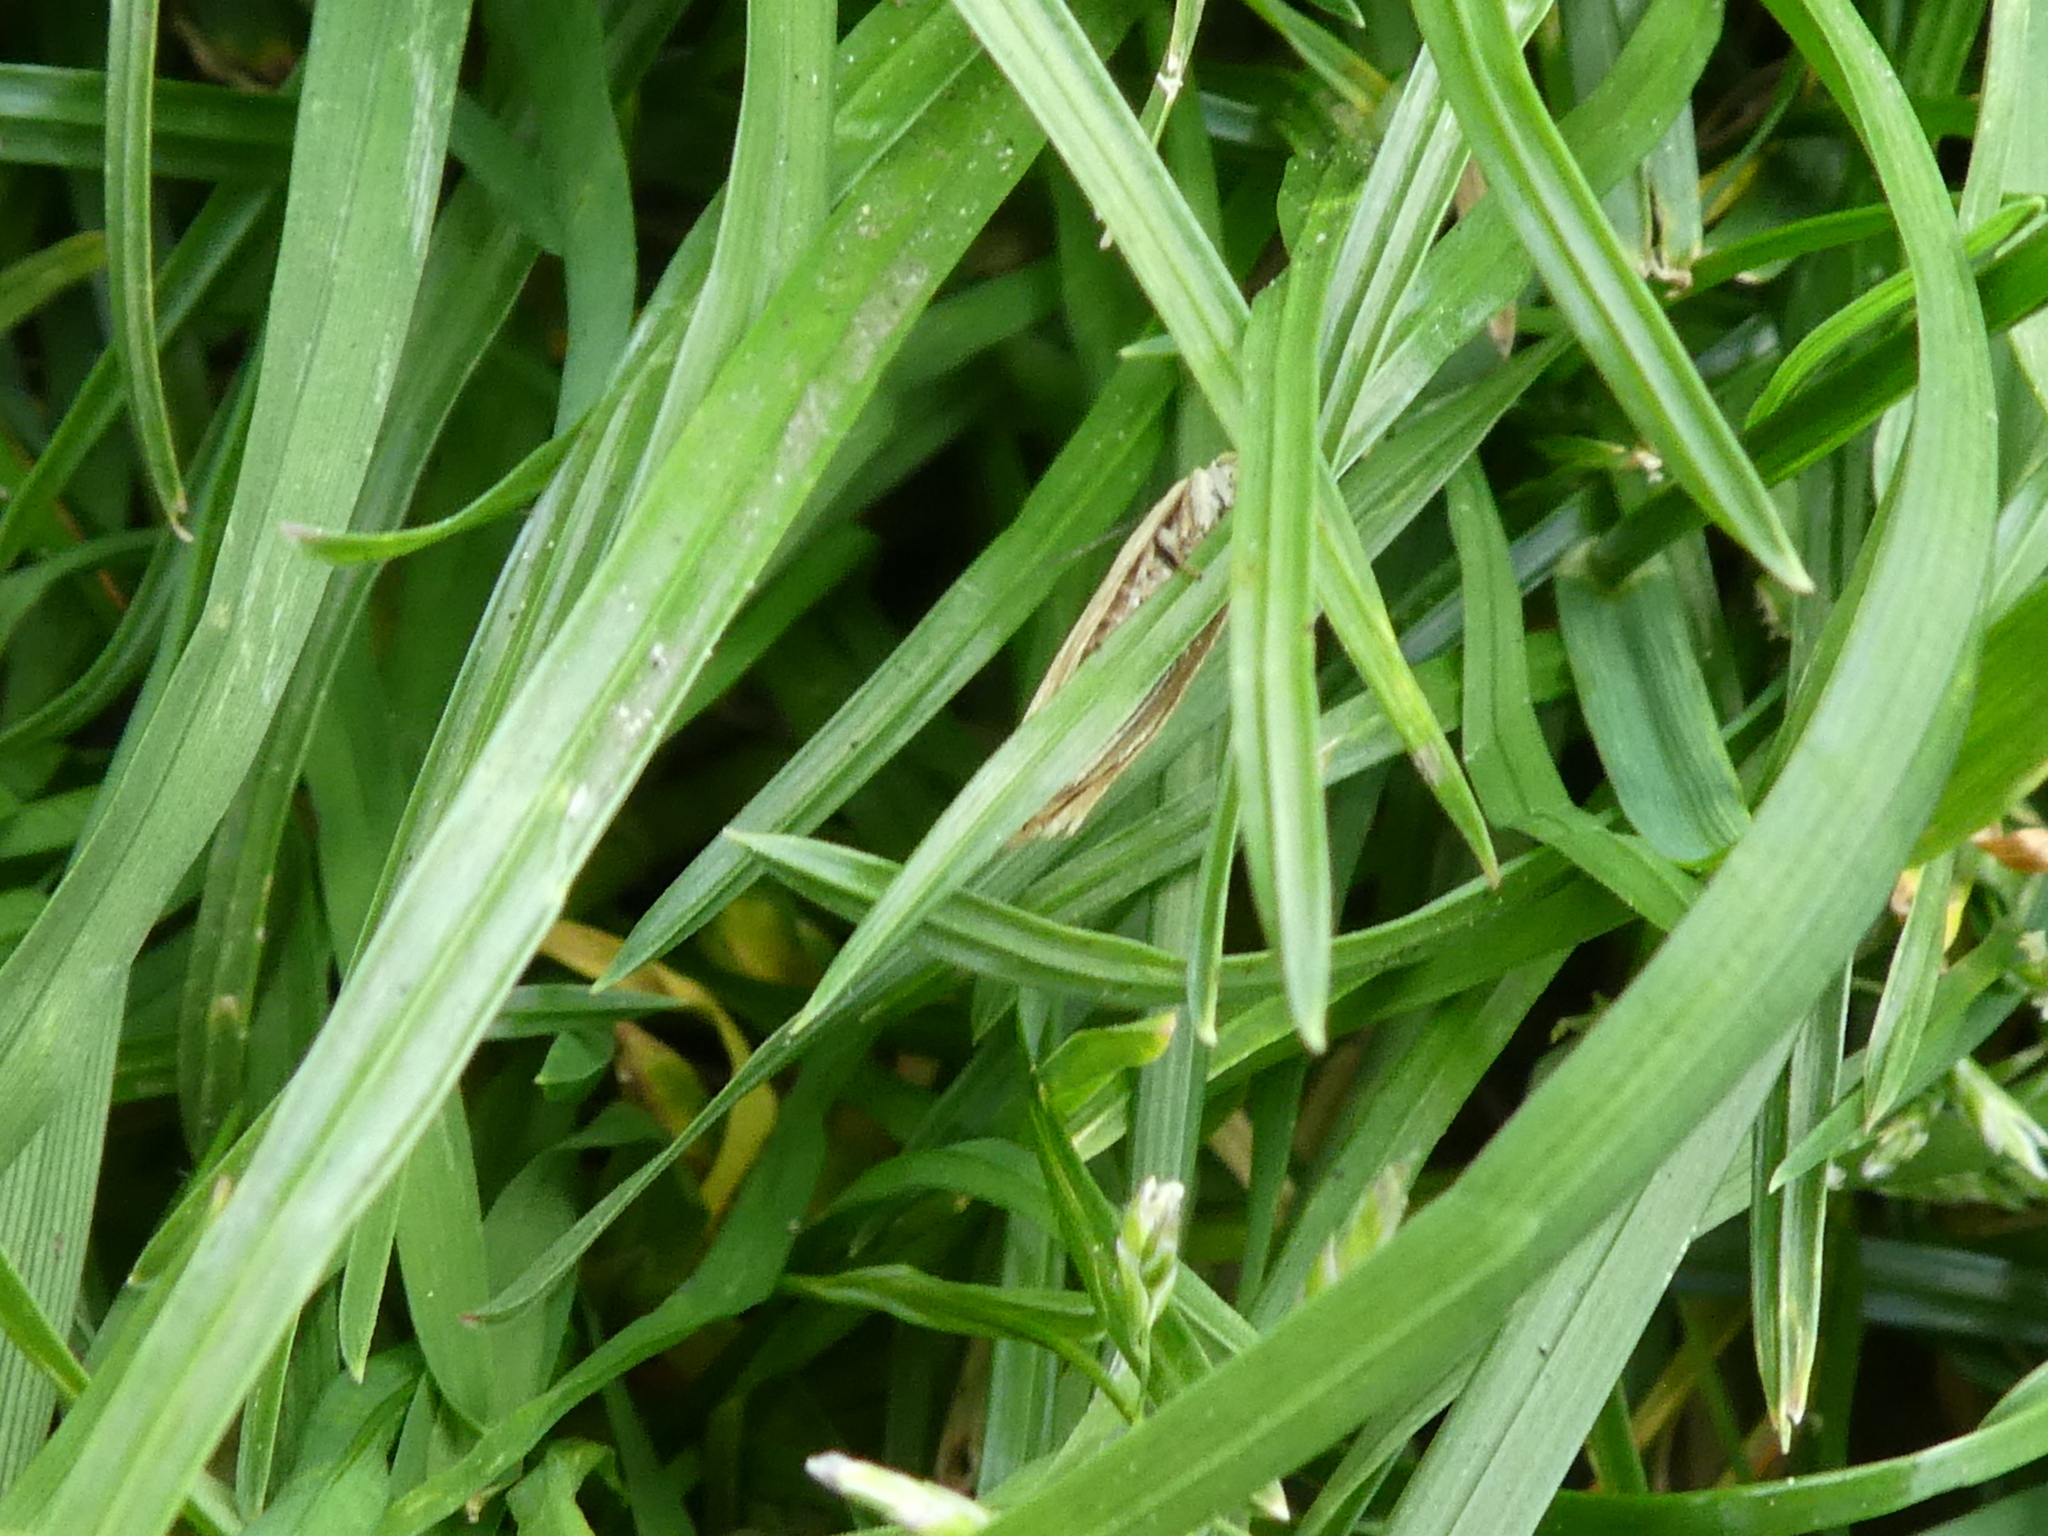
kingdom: Animalia
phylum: Arthropoda
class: Insecta
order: Lepidoptera
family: Crambidae
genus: Crambus
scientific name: Crambus nemorella
